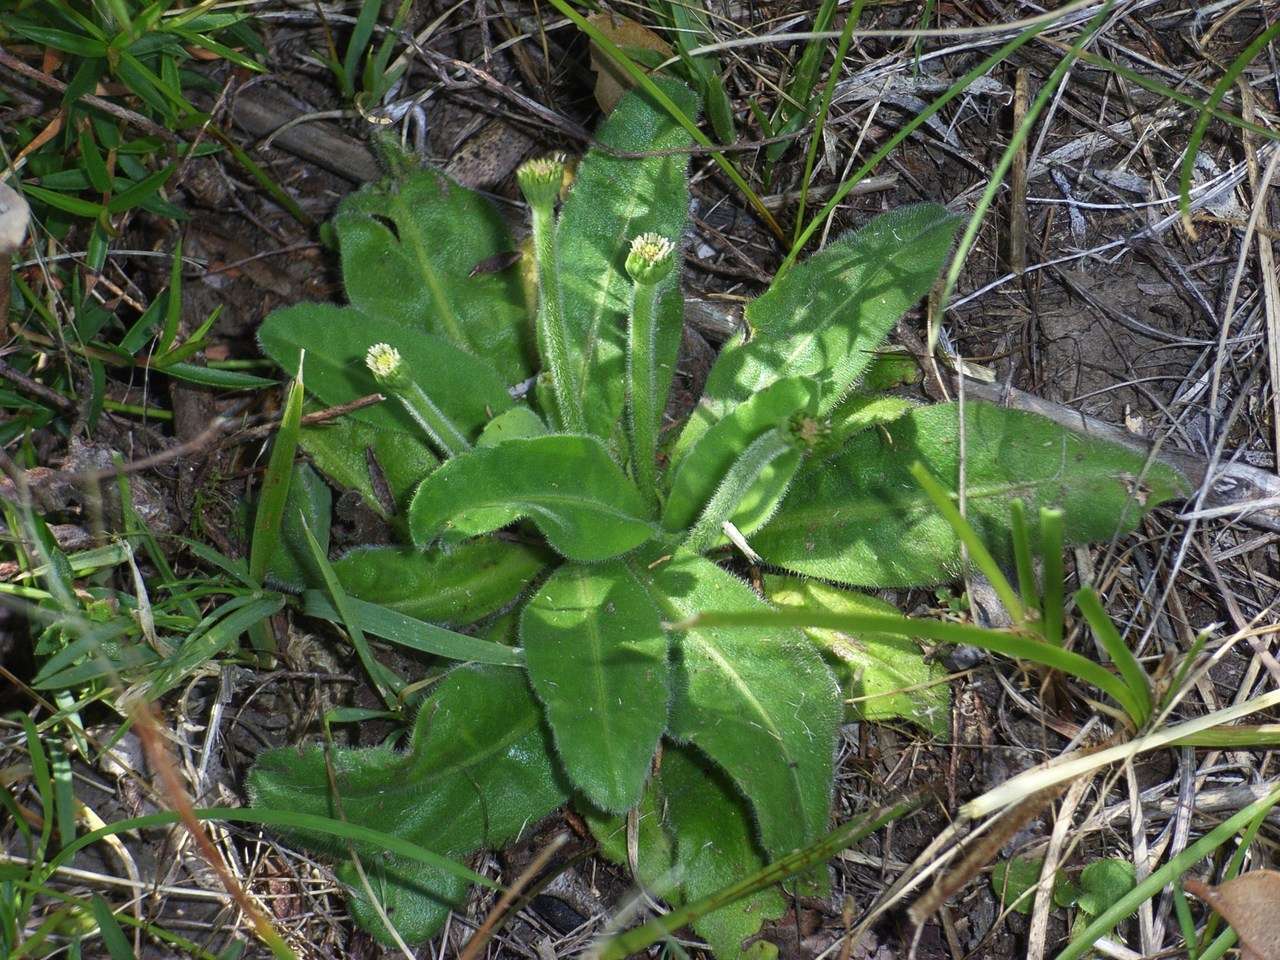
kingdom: Plantae
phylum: Tracheophyta
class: Magnoliopsida
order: Asterales
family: Asteraceae
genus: Solenogyne
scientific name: Solenogyne gunnii
